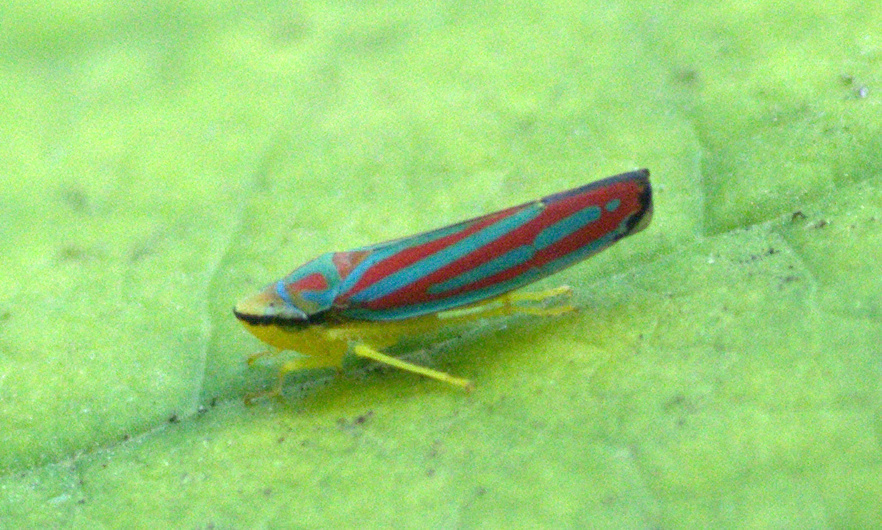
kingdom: Animalia
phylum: Arthropoda
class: Insecta
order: Hemiptera
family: Cicadellidae
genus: Graphocephala
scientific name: Graphocephala coccinea
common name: Candy-striped leafhopper
